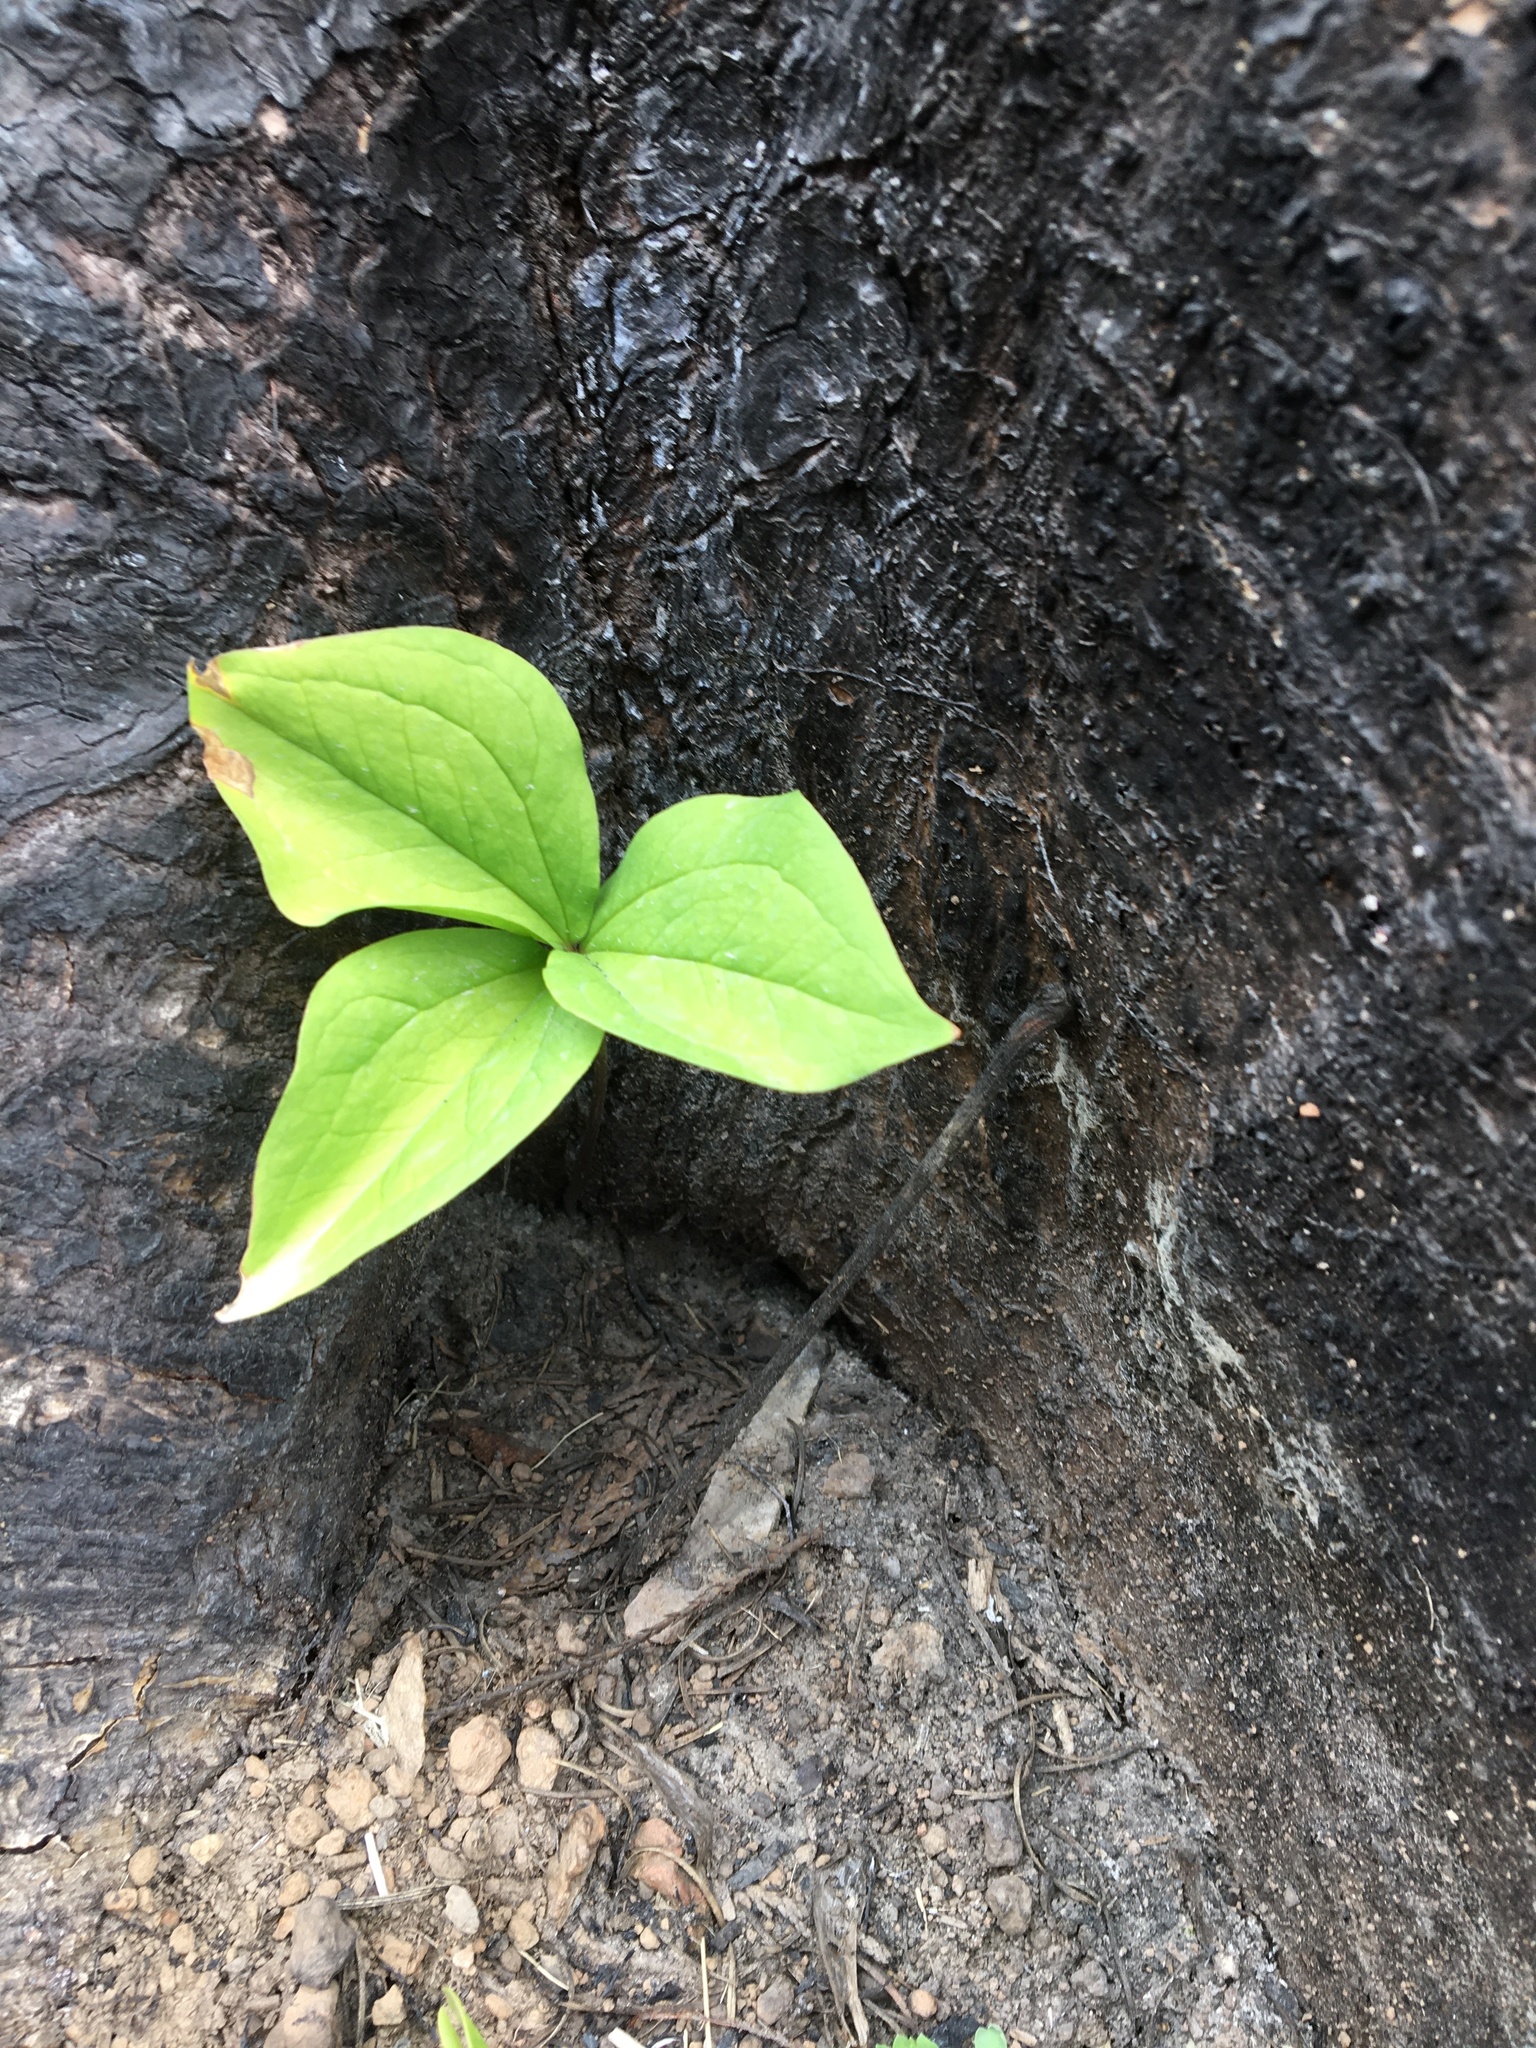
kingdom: Plantae
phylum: Tracheophyta
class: Liliopsida
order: Liliales
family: Melanthiaceae
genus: Trillium
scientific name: Trillium ovatum
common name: Pacific trillium
